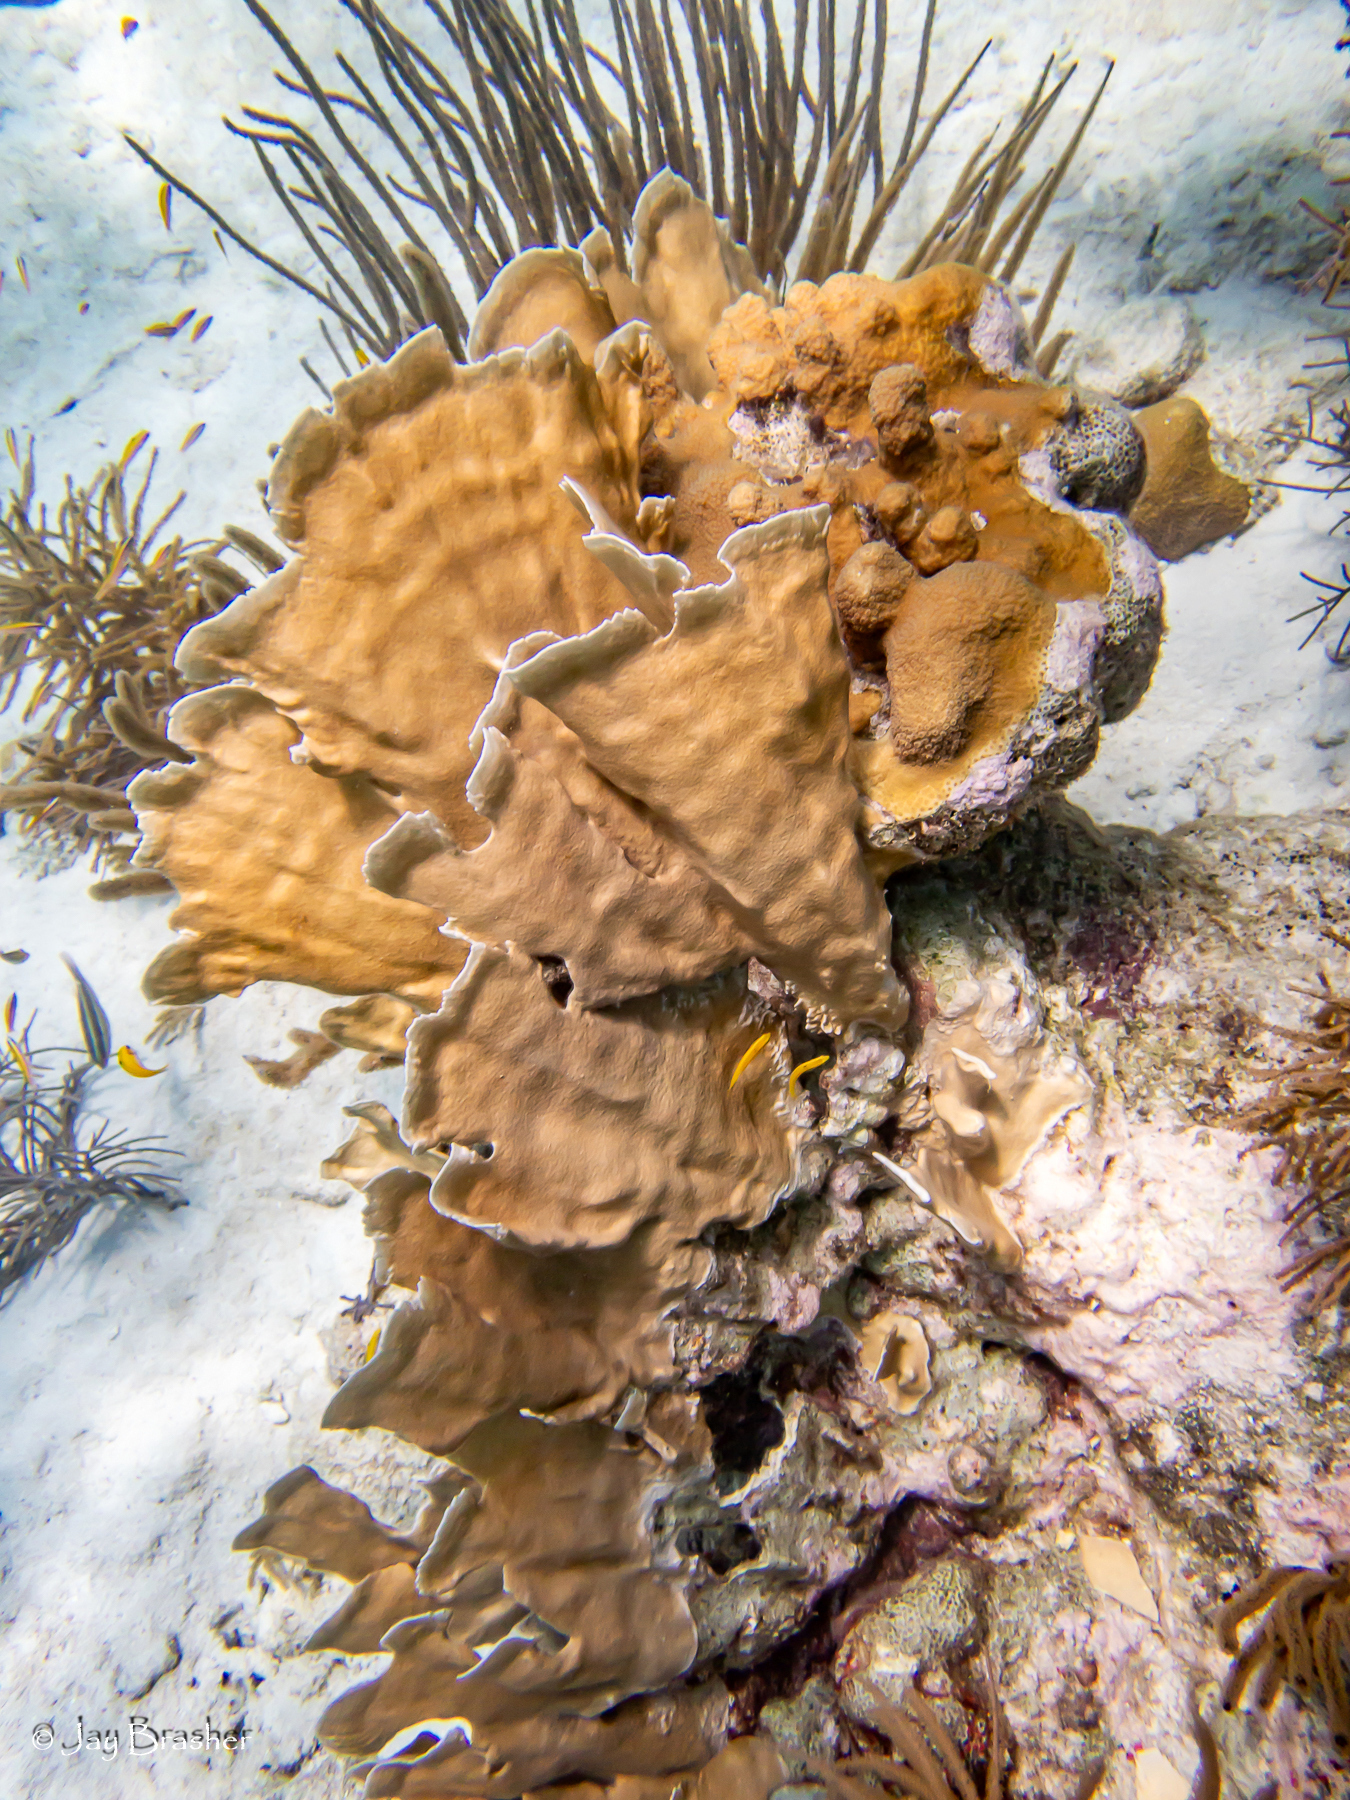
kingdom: Animalia
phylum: Cnidaria
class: Hydrozoa
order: Anthoathecata
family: Milleporidae
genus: Millepora
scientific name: Millepora complanata
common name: Bladed fire coral
